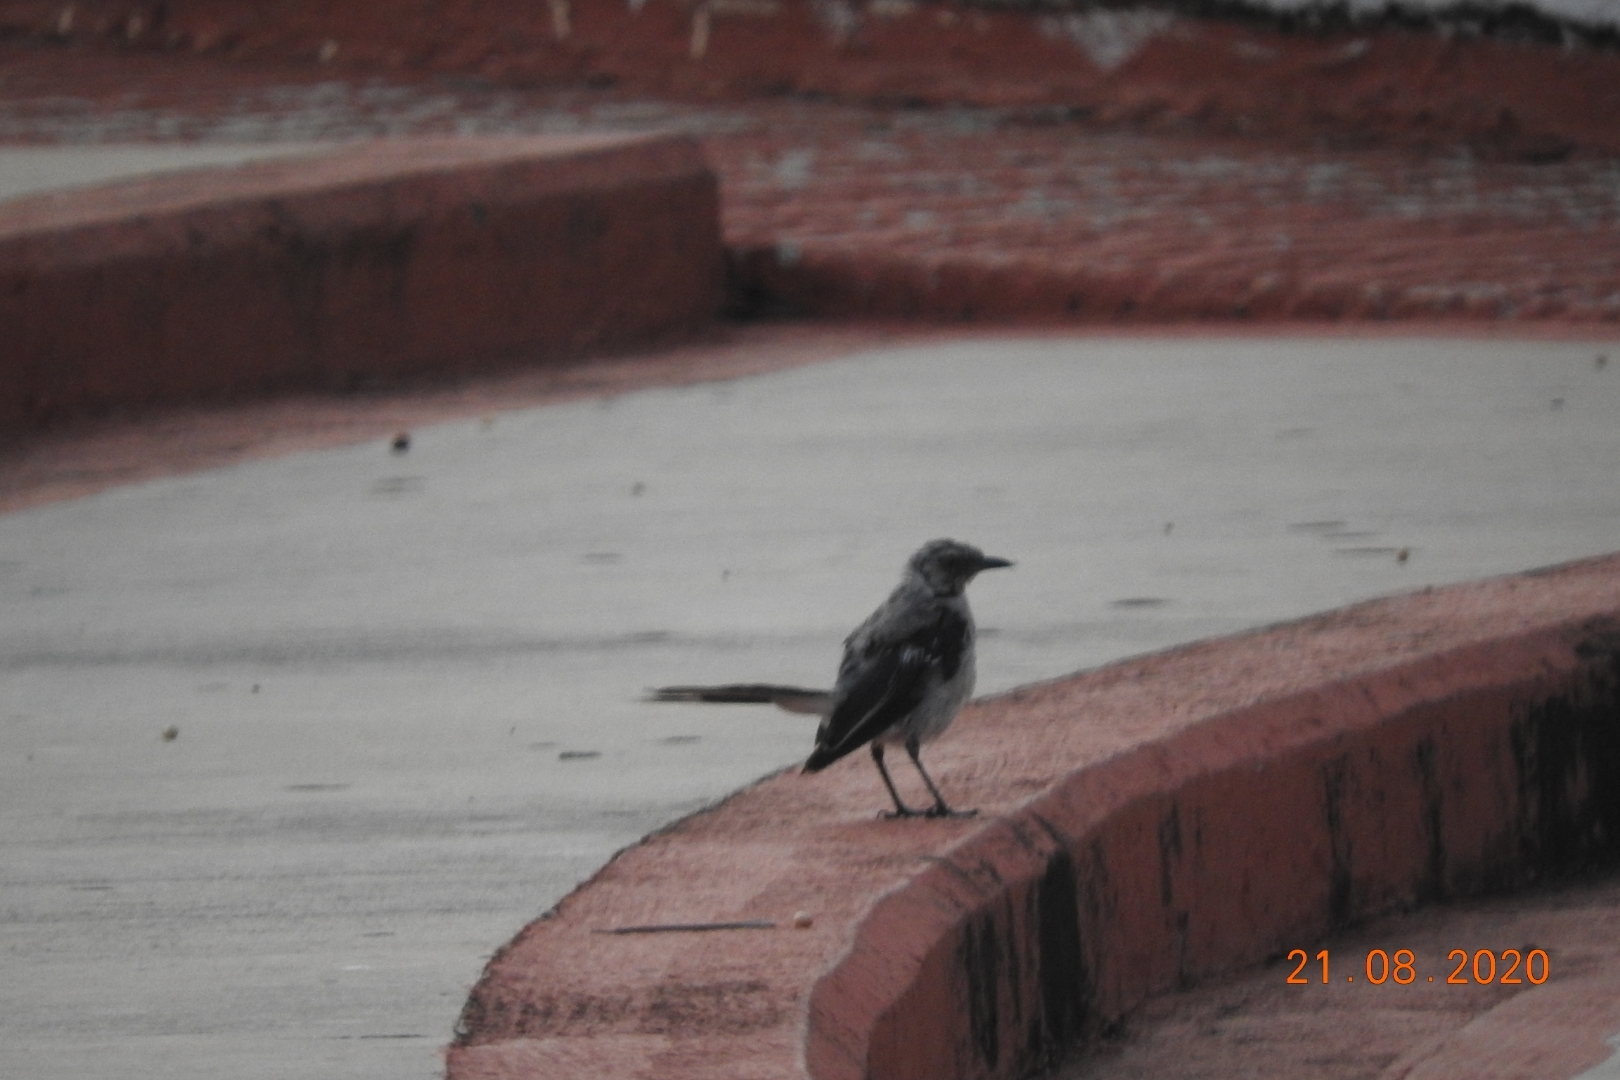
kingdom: Animalia
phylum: Chordata
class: Aves
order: Passeriformes
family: Mimidae
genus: Mimus
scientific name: Mimus gilvus
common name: Tropical mockingbird
